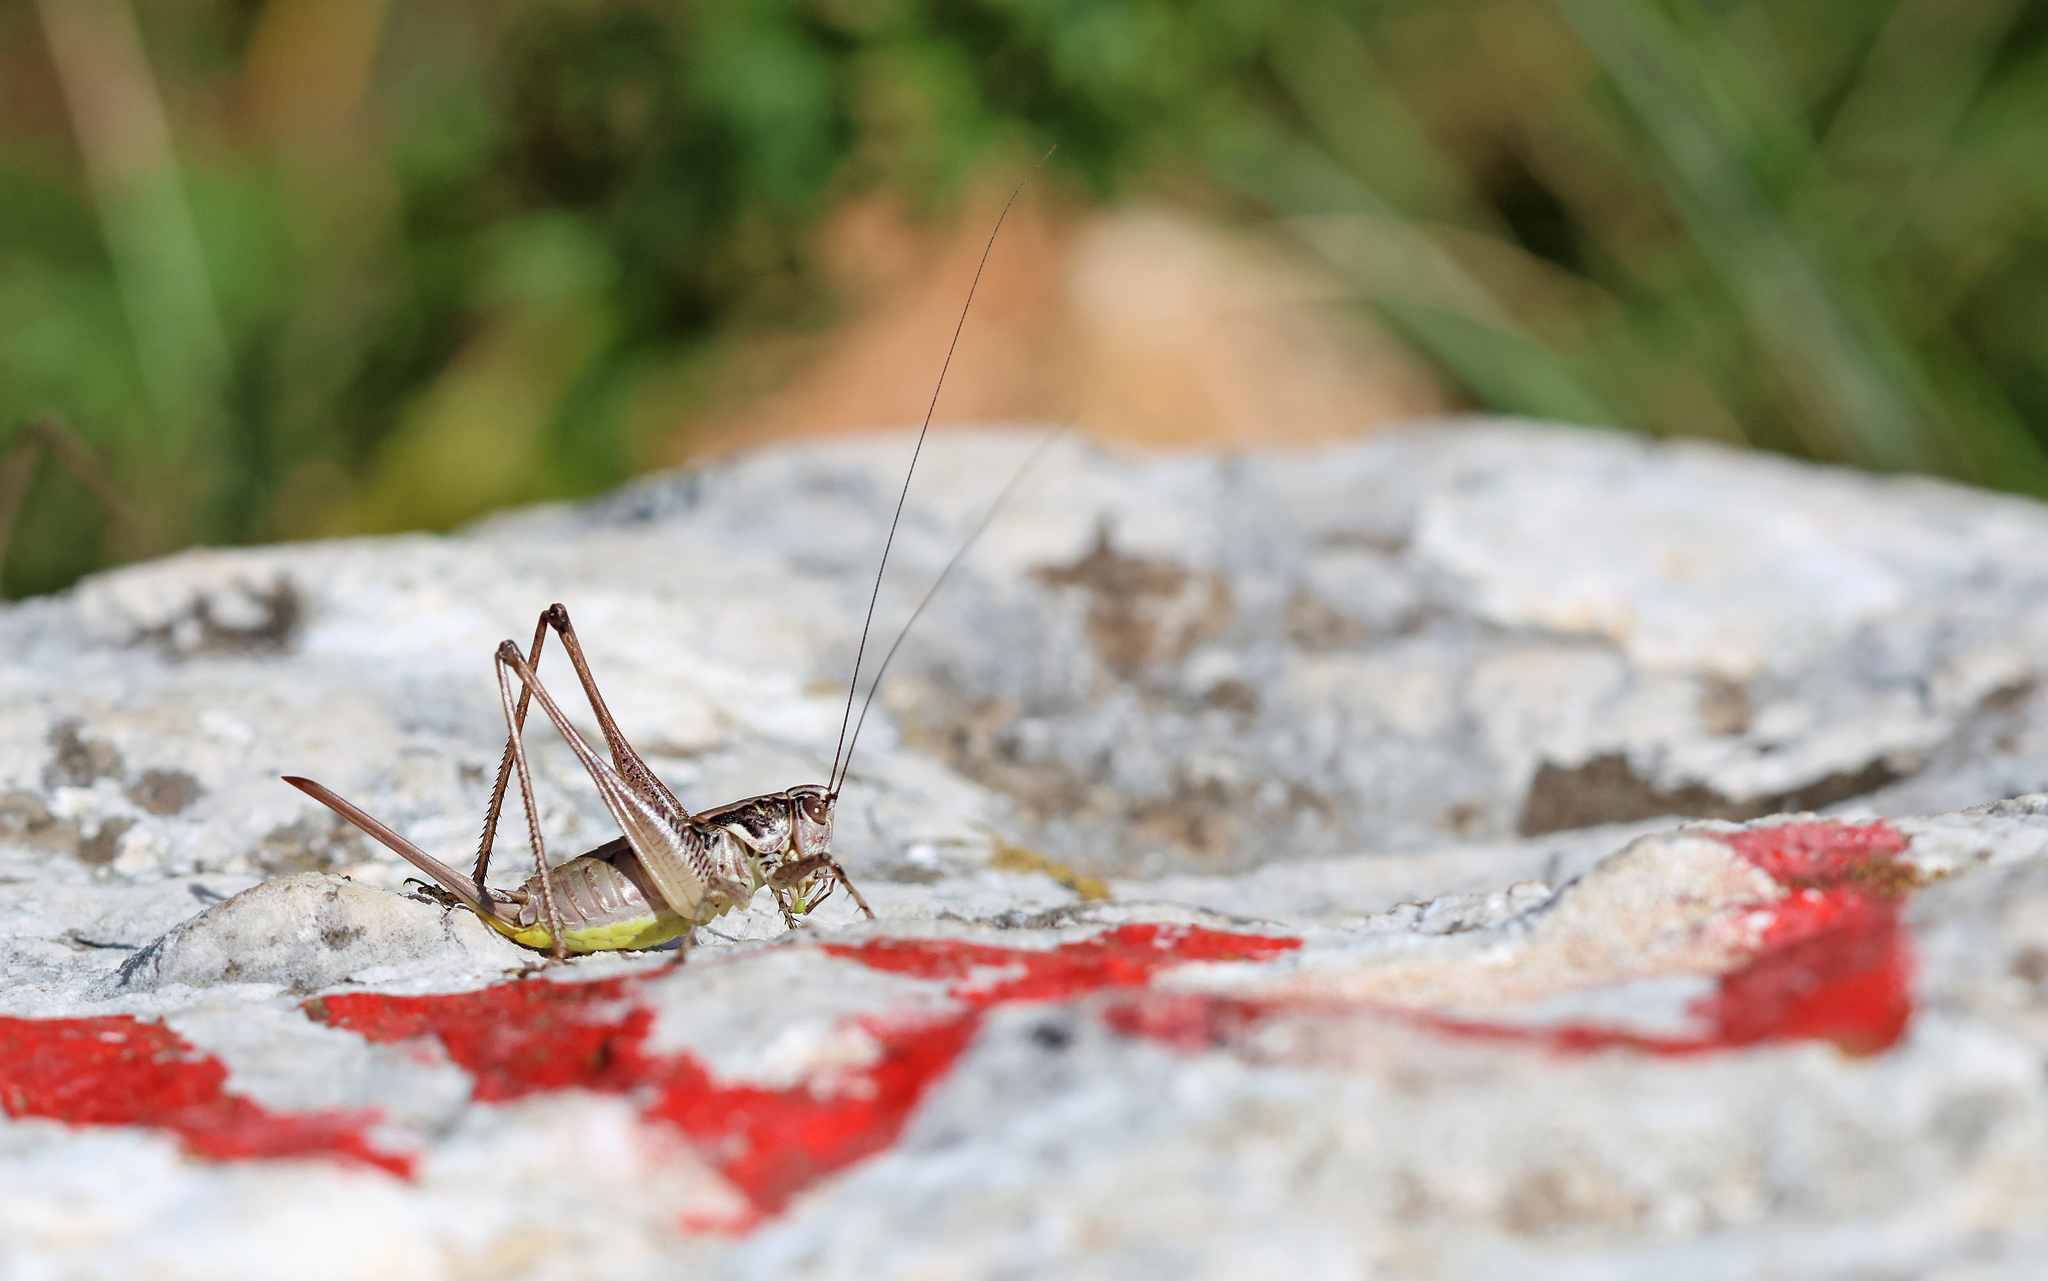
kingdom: Animalia
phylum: Arthropoda
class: Insecta
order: Orthoptera
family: Tettigoniidae
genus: Pachytrachis
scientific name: Pachytrachis striolatus
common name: Striated bush-cricket
